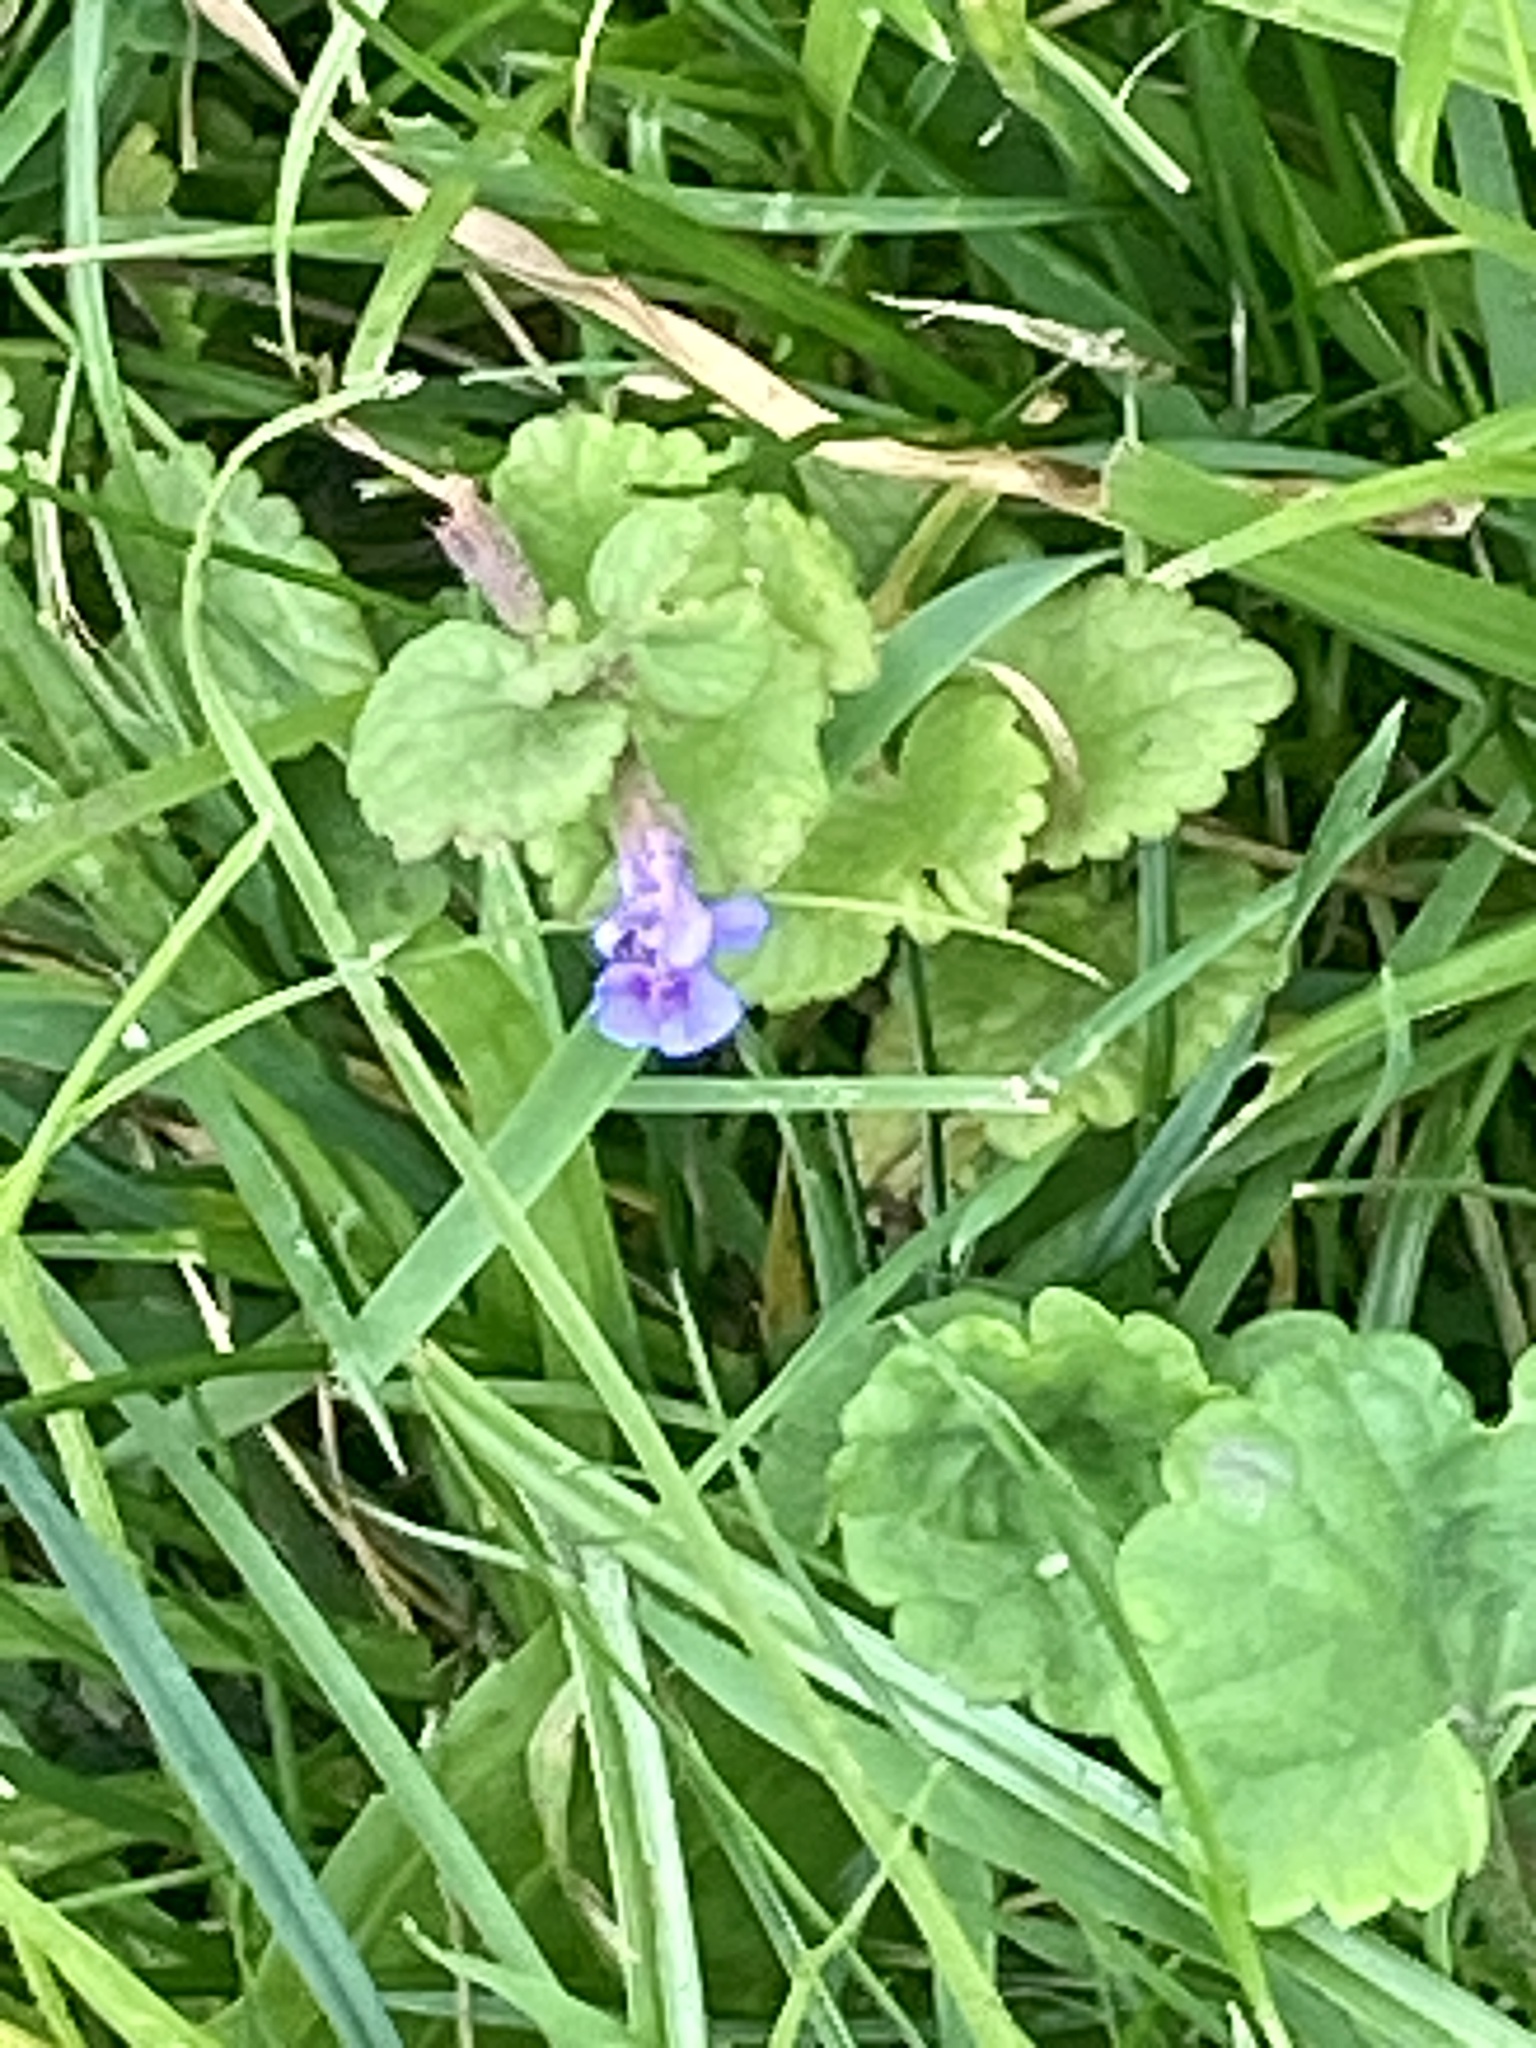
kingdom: Plantae
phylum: Tracheophyta
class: Magnoliopsida
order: Lamiales
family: Lamiaceae
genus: Glechoma
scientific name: Glechoma hederacea
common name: Ground ivy
